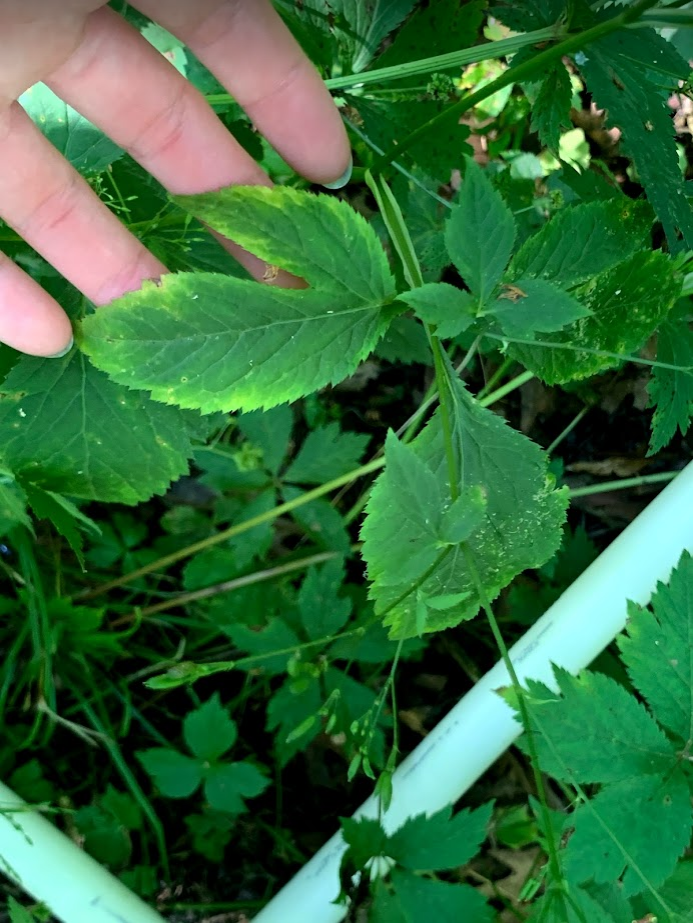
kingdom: Plantae
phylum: Tracheophyta
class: Magnoliopsida
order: Apiales
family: Apiaceae
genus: Cryptotaenia
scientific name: Cryptotaenia canadensis
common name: Honewort
